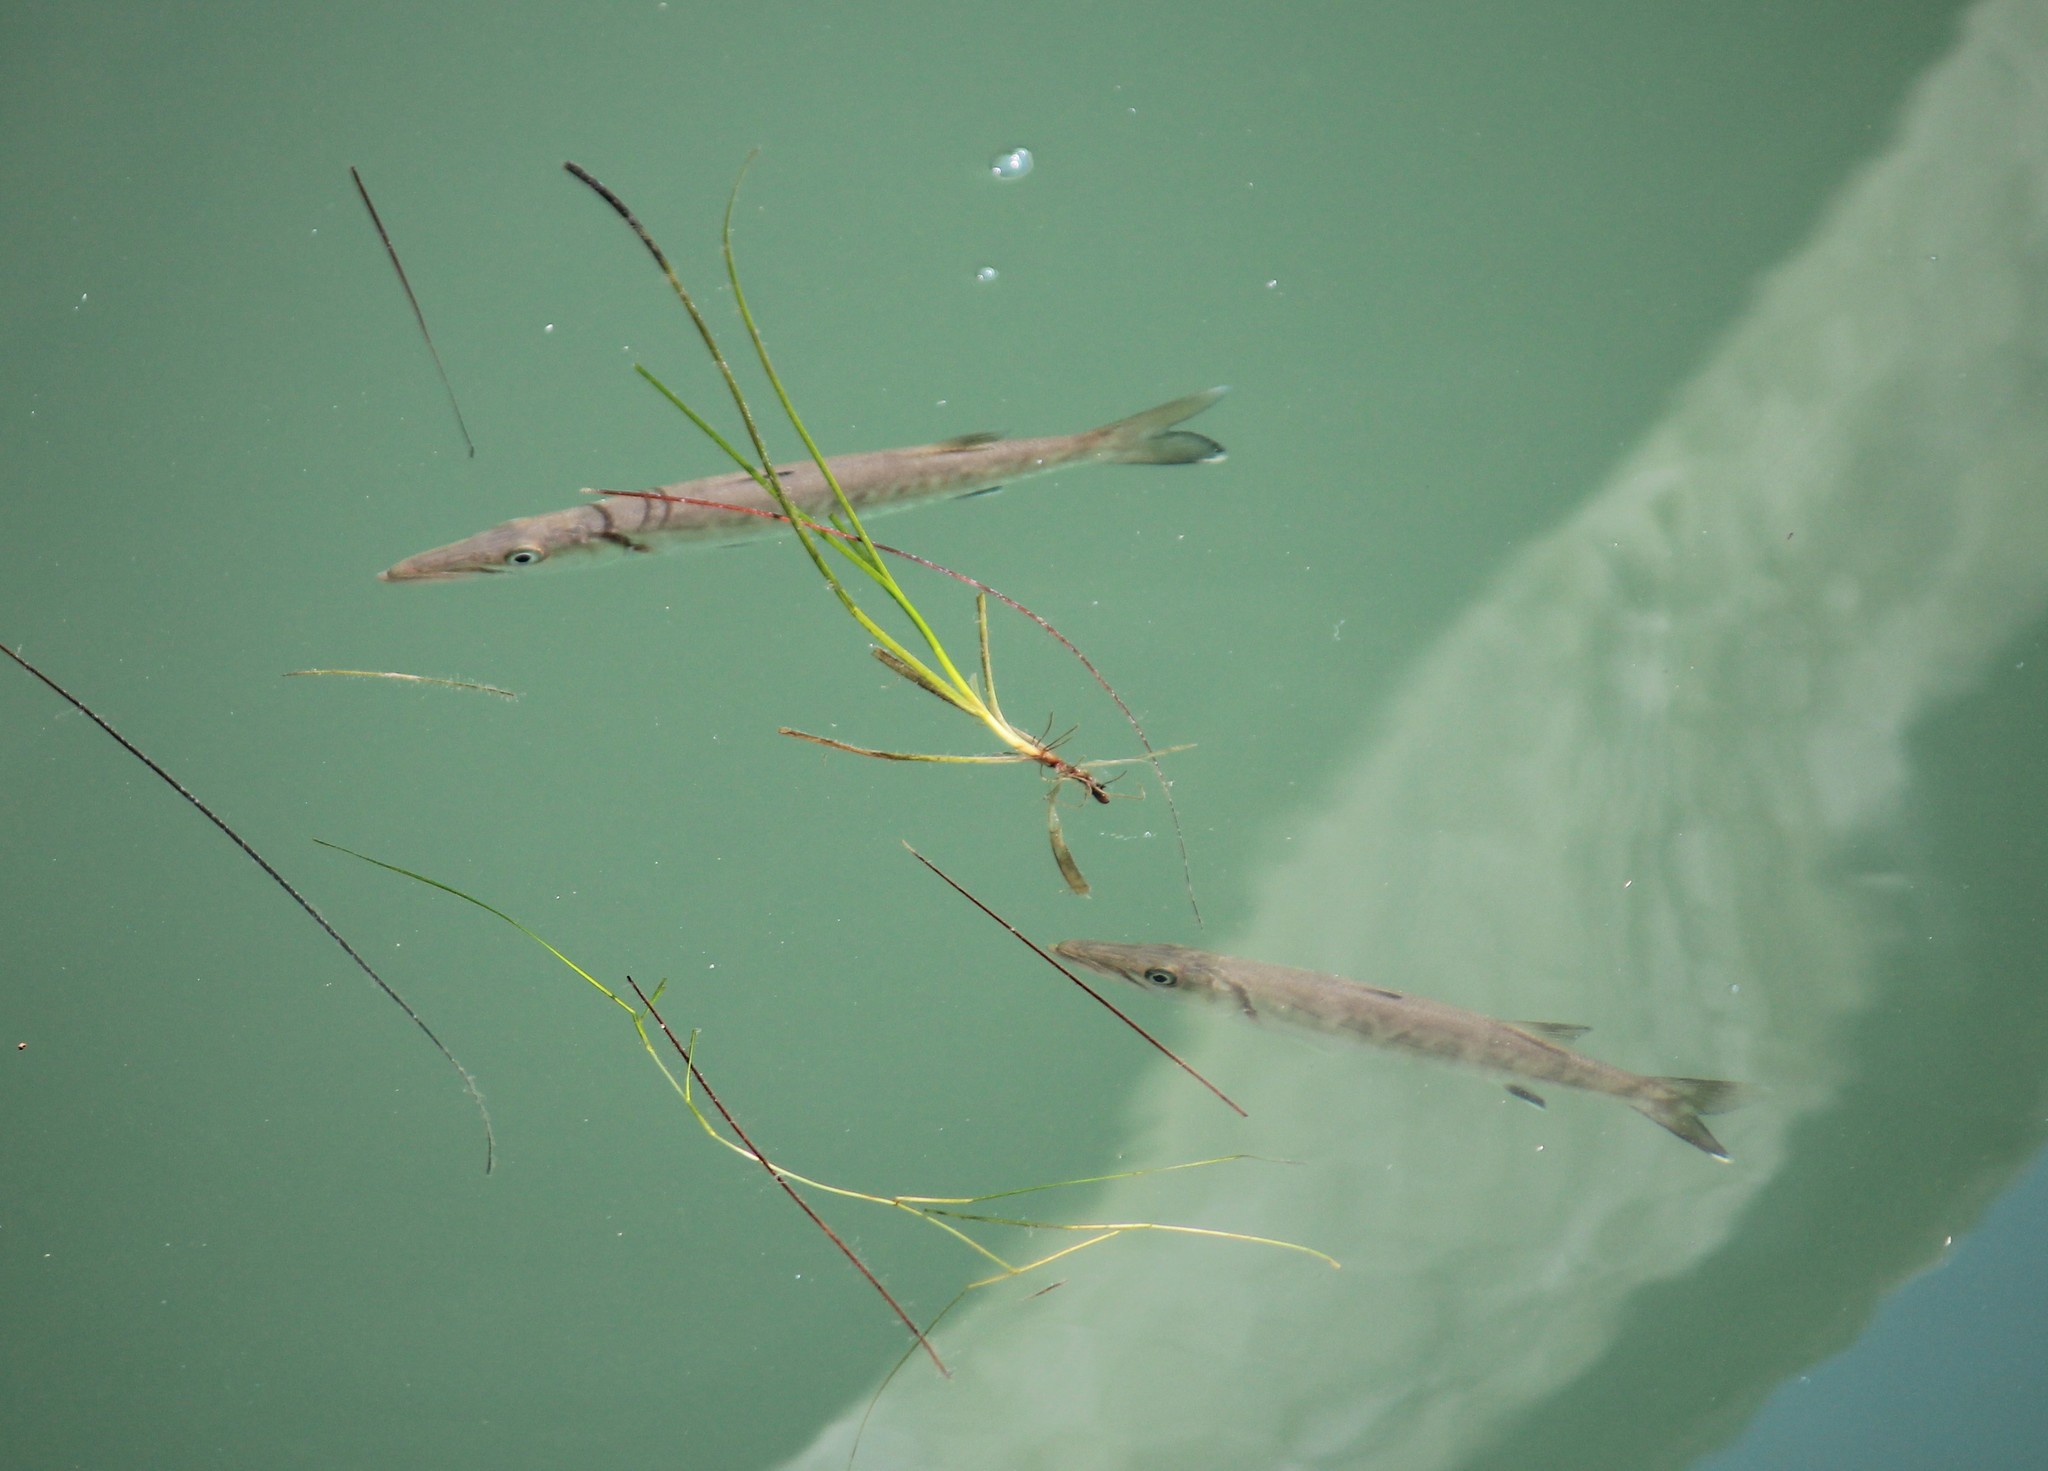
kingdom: Animalia
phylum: Chordata
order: Perciformes
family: Sphyraenidae
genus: Sphyraena
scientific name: Sphyraena barracuda
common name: Great barracuda
